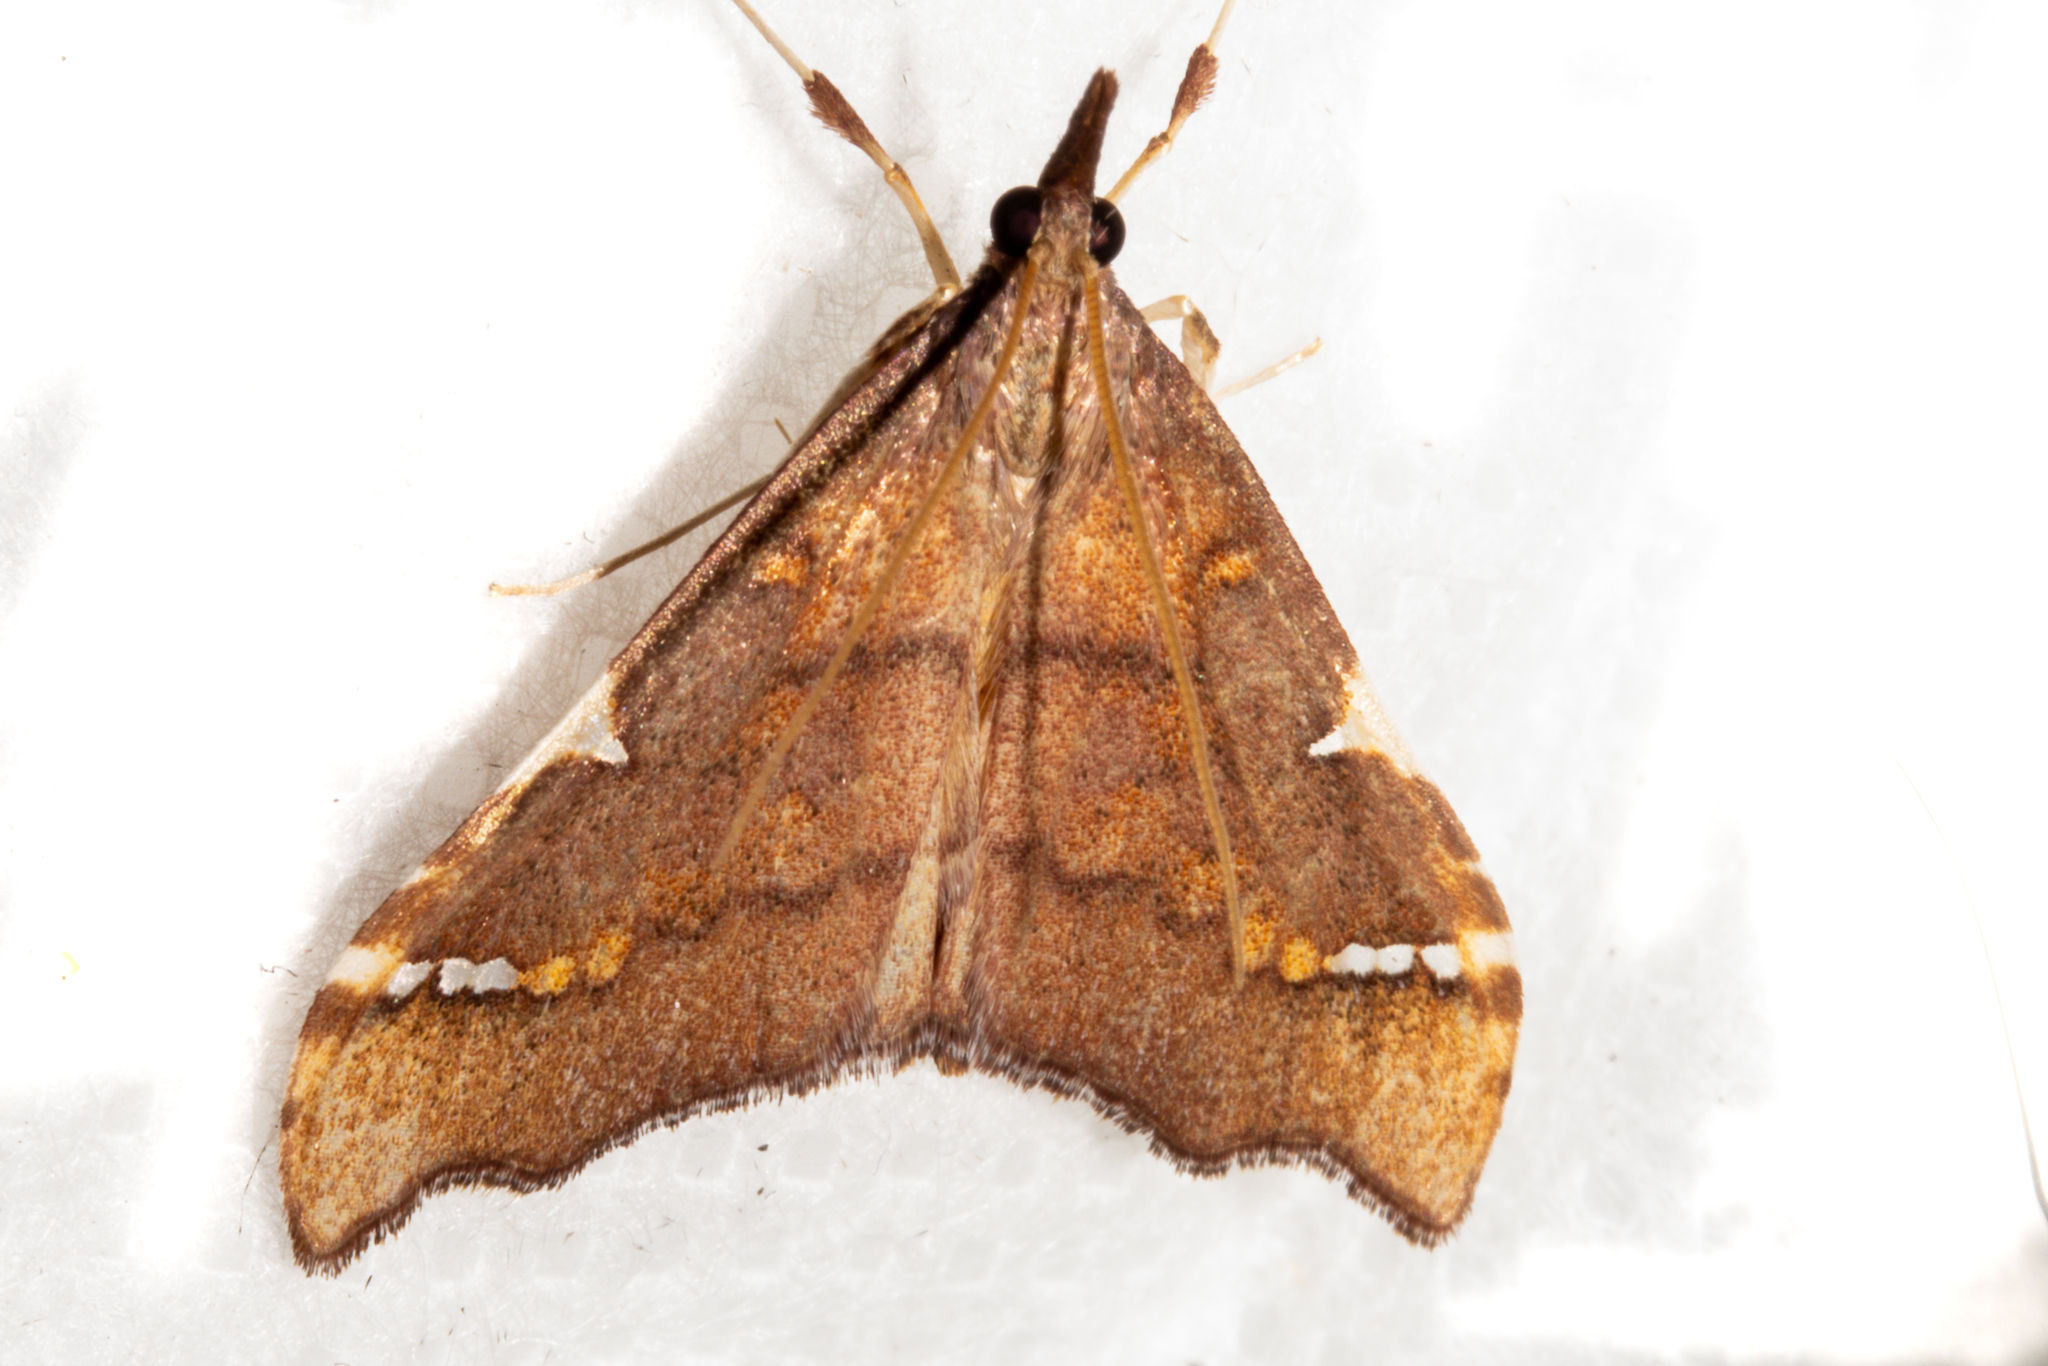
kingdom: Animalia
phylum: Arthropoda
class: Insecta
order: Lepidoptera
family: Crambidae
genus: Deana
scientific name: Deana hybreasalis
